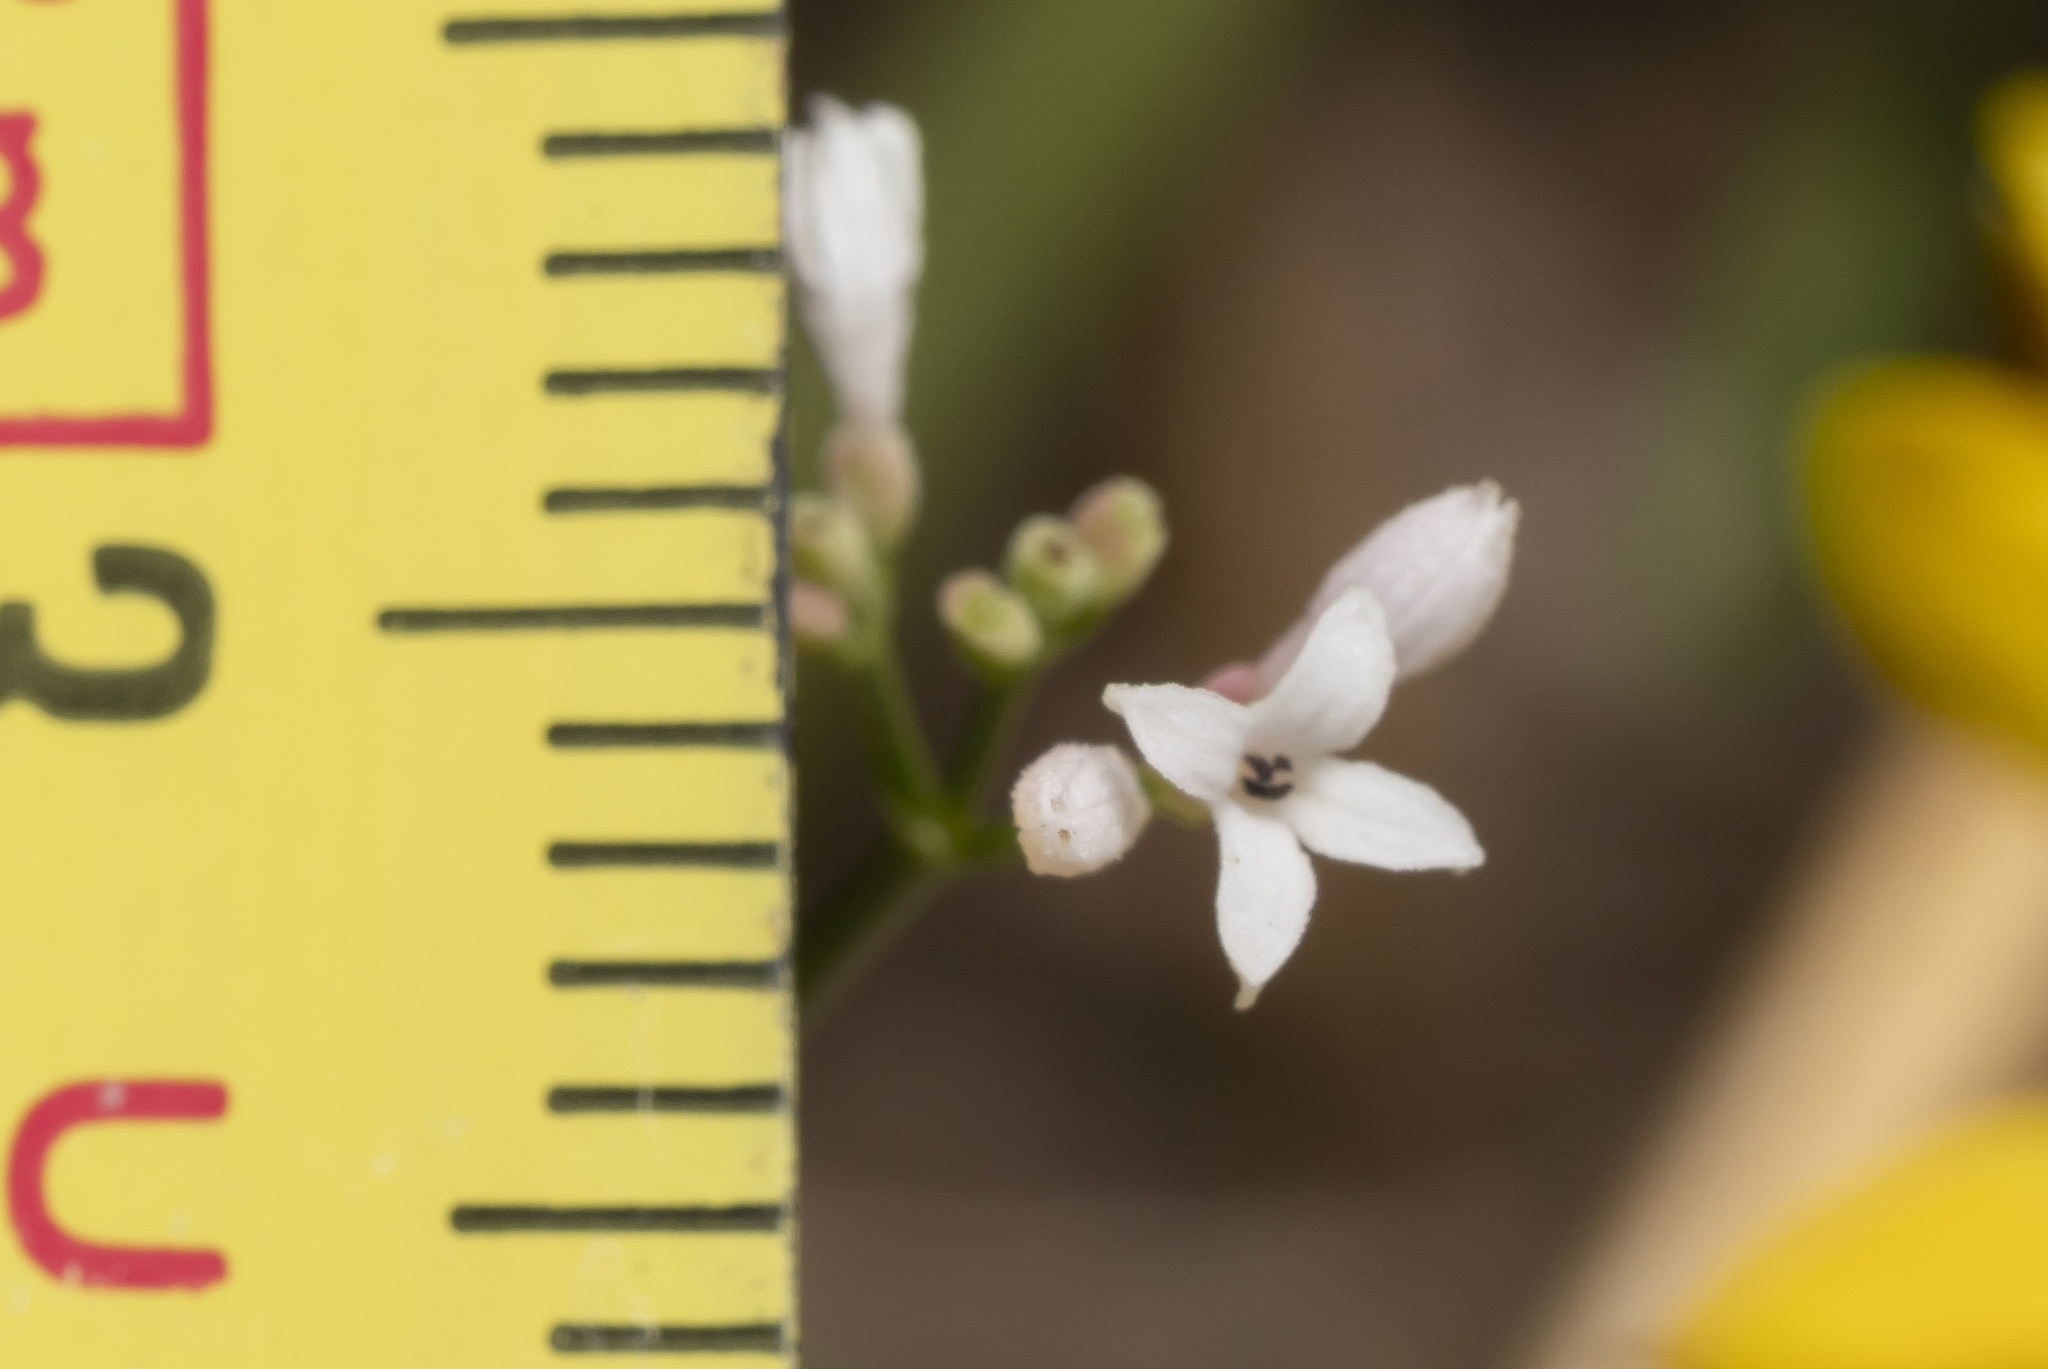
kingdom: Plantae
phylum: Tracheophyta
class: Magnoliopsida
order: Gentianales
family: Rubiaceae
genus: Cynanchica
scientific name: Cynanchica pyrenaica
